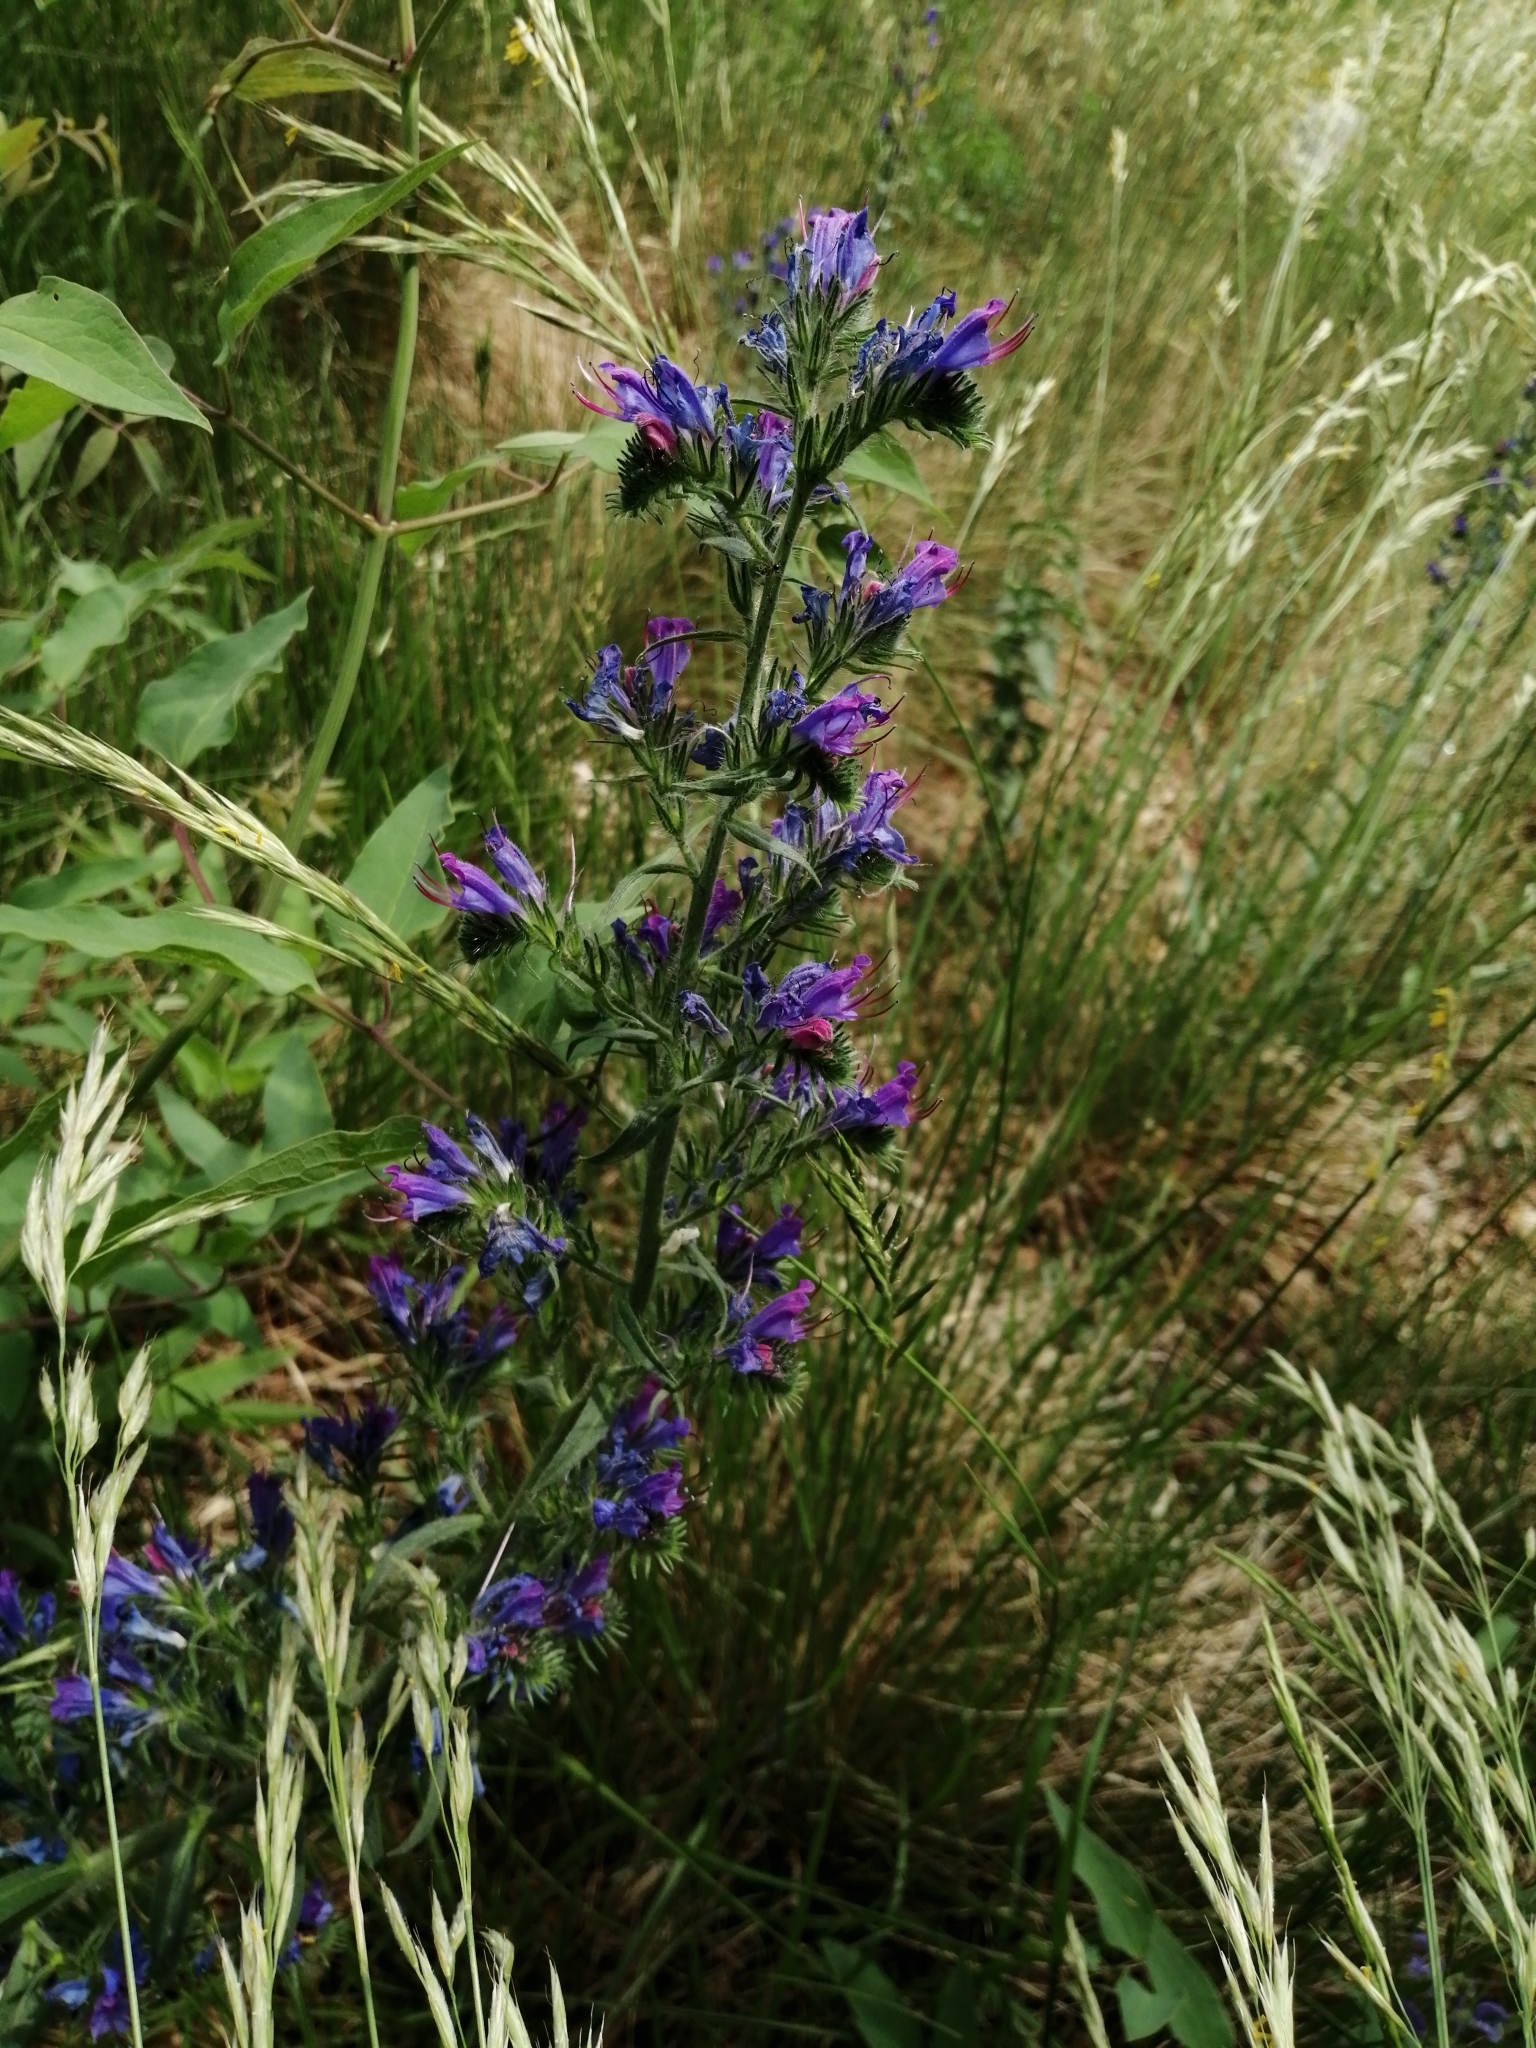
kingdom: Plantae
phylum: Tracheophyta
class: Magnoliopsida
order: Boraginales
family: Boraginaceae
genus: Echium
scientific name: Echium vulgare
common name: Common viper's bugloss
